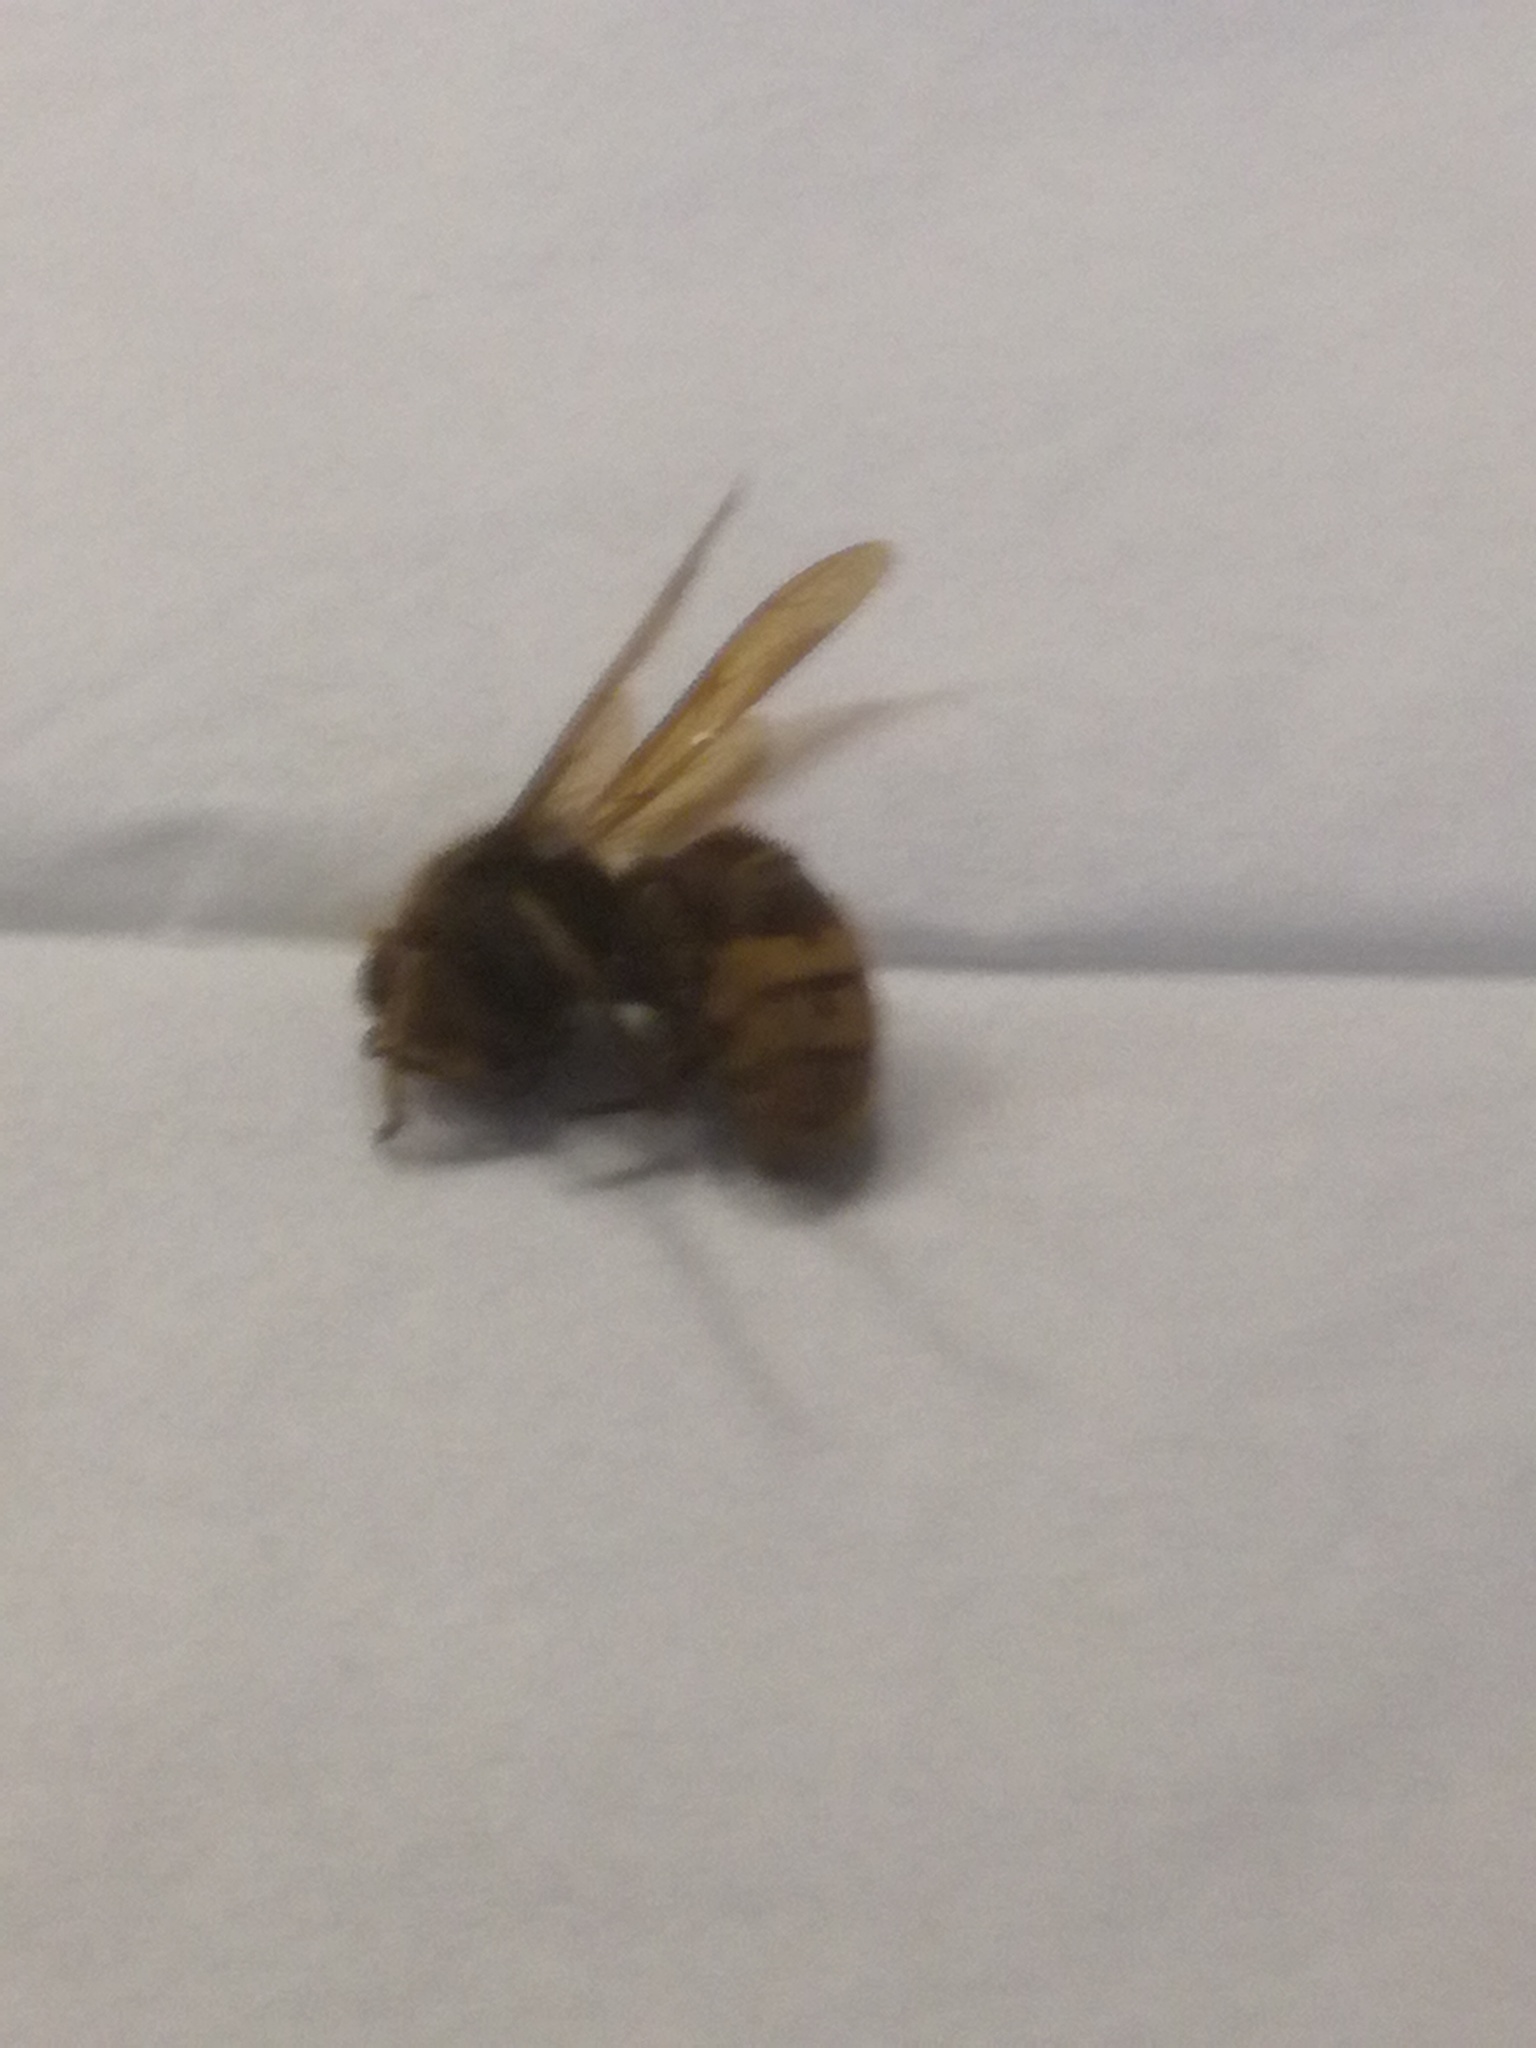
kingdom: Animalia
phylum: Arthropoda
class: Insecta
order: Hymenoptera
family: Vespidae
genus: Vespa
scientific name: Vespa crabro
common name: Hornet
